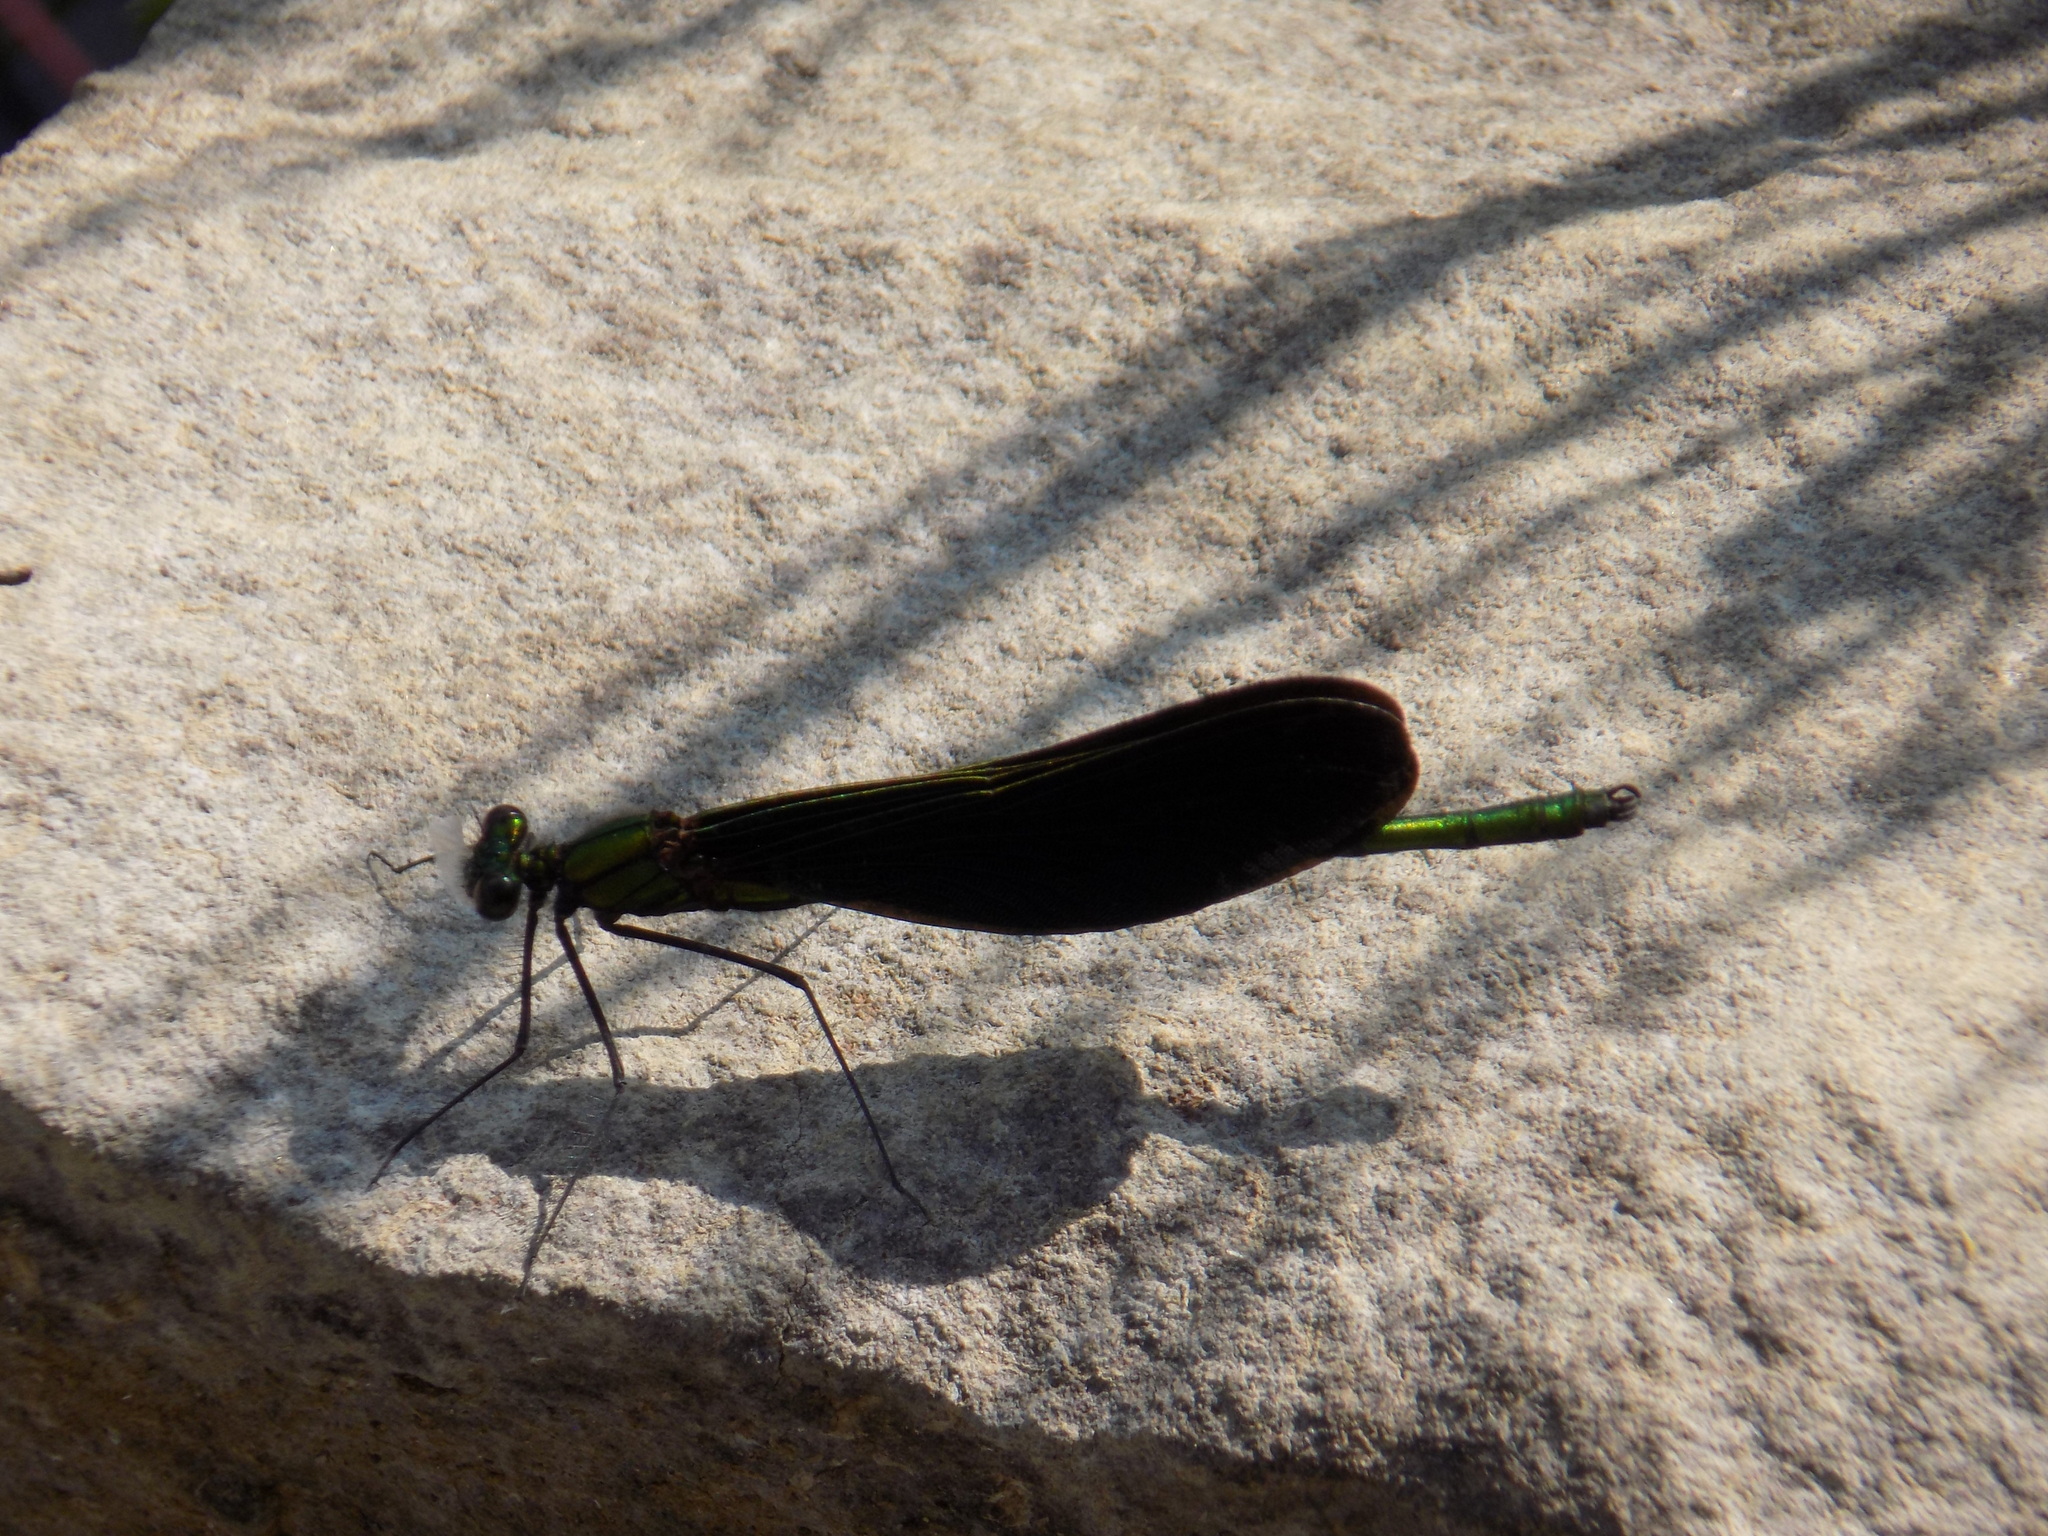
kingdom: Animalia
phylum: Arthropoda
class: Insecta
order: Odonata
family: Calopterygidae
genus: Calopteryx
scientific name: Calopteryx japonica
